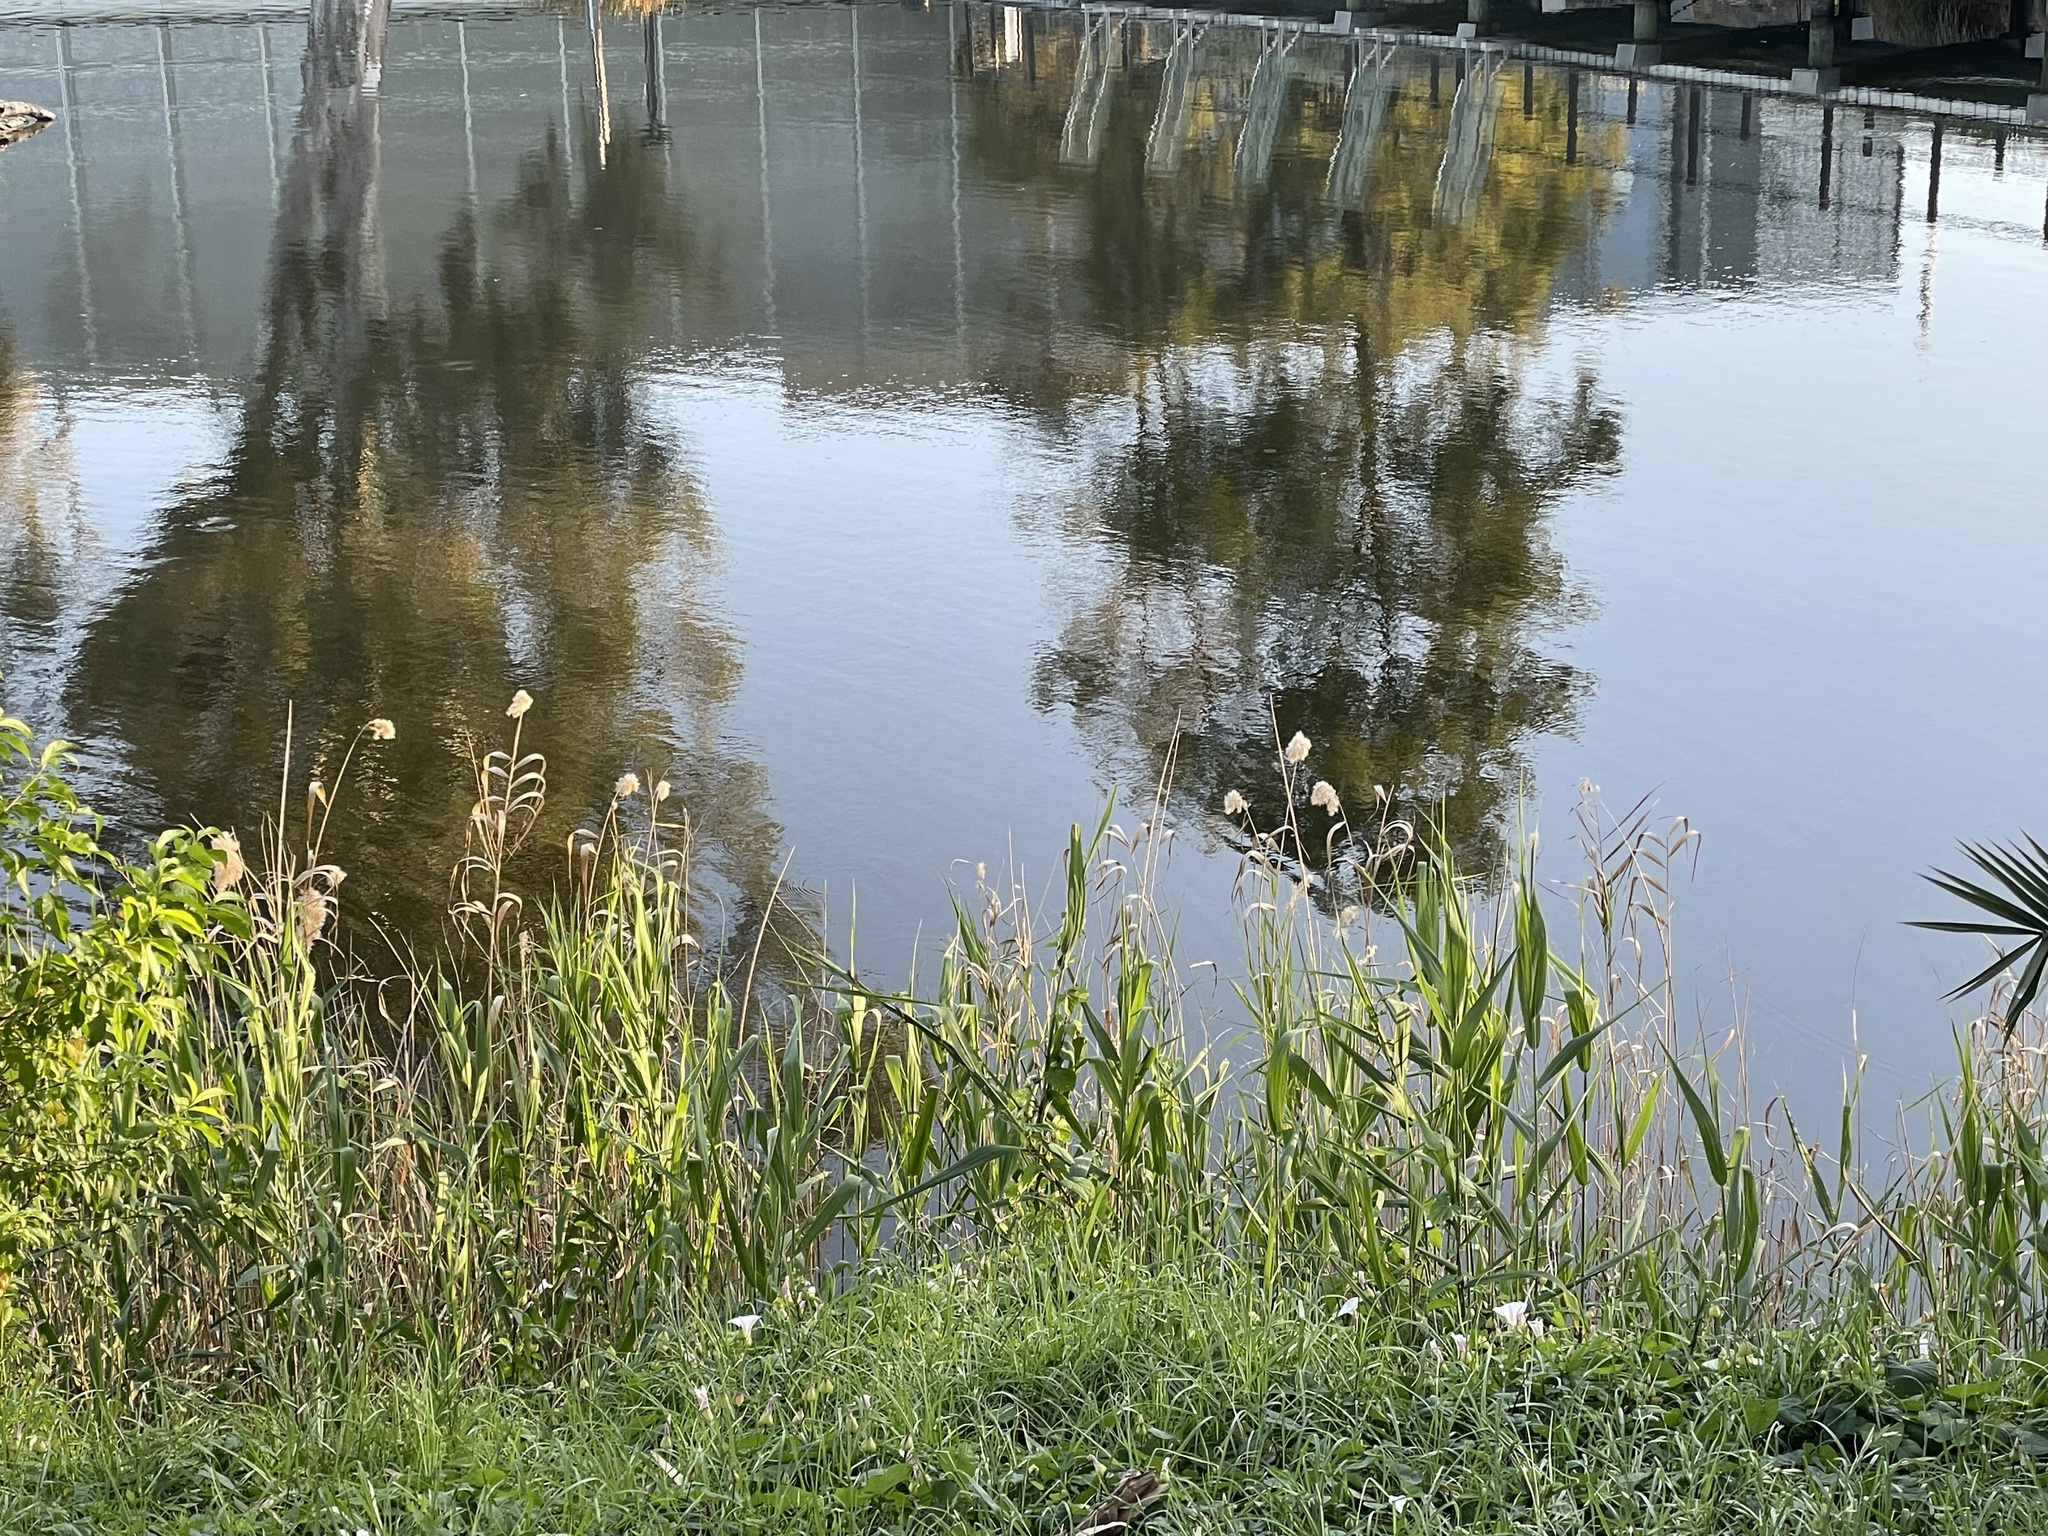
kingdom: Plantae
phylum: Tracheophyta
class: Liliopsida
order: Poales
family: Poaceae
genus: Phragmites
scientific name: Phragmites australis
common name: Common reed
